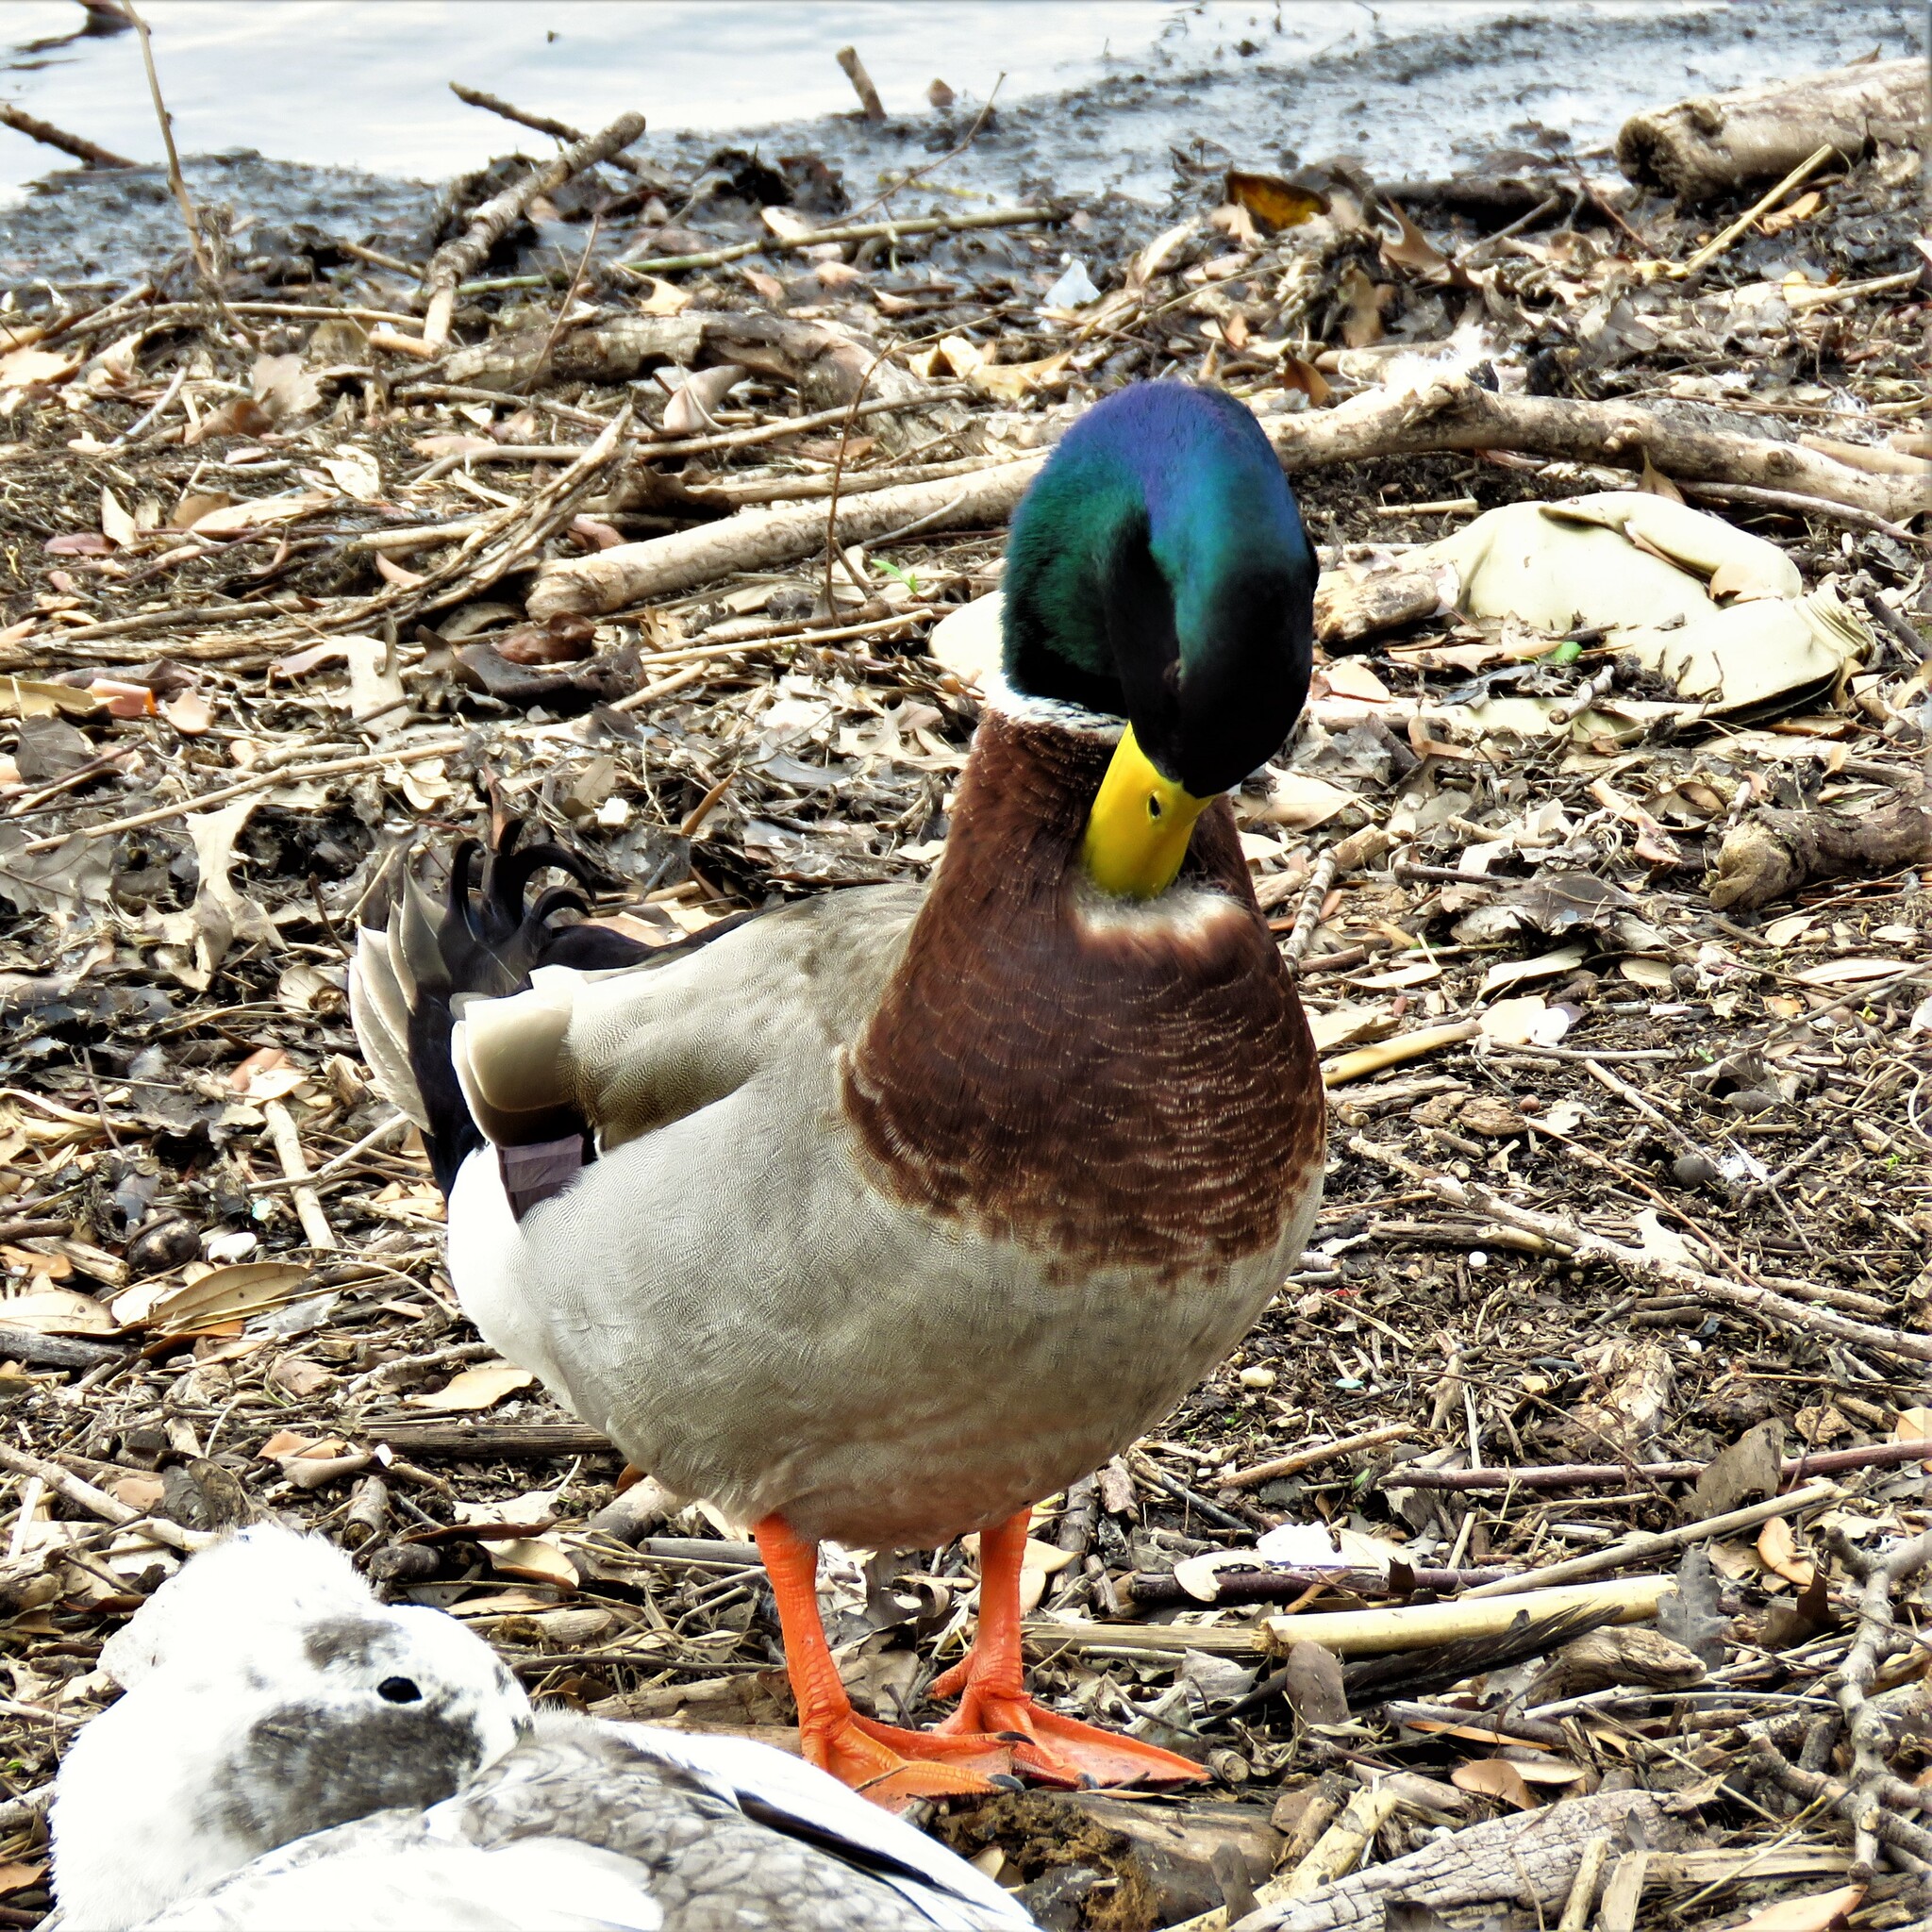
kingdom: Animalia
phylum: Chordata
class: Aves
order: Anseriformes
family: Anatidae
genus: Anas
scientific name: Anas platyrhynchos
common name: Mallard
